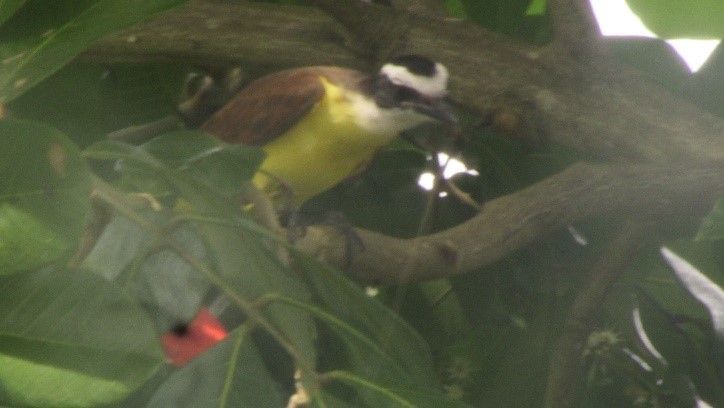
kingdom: Animalia
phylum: Chordata
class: Aves
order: Passeriformes
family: Tyrannidae
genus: Pitangus
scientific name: Pitangus sulphuratus
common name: Great kiskadee
